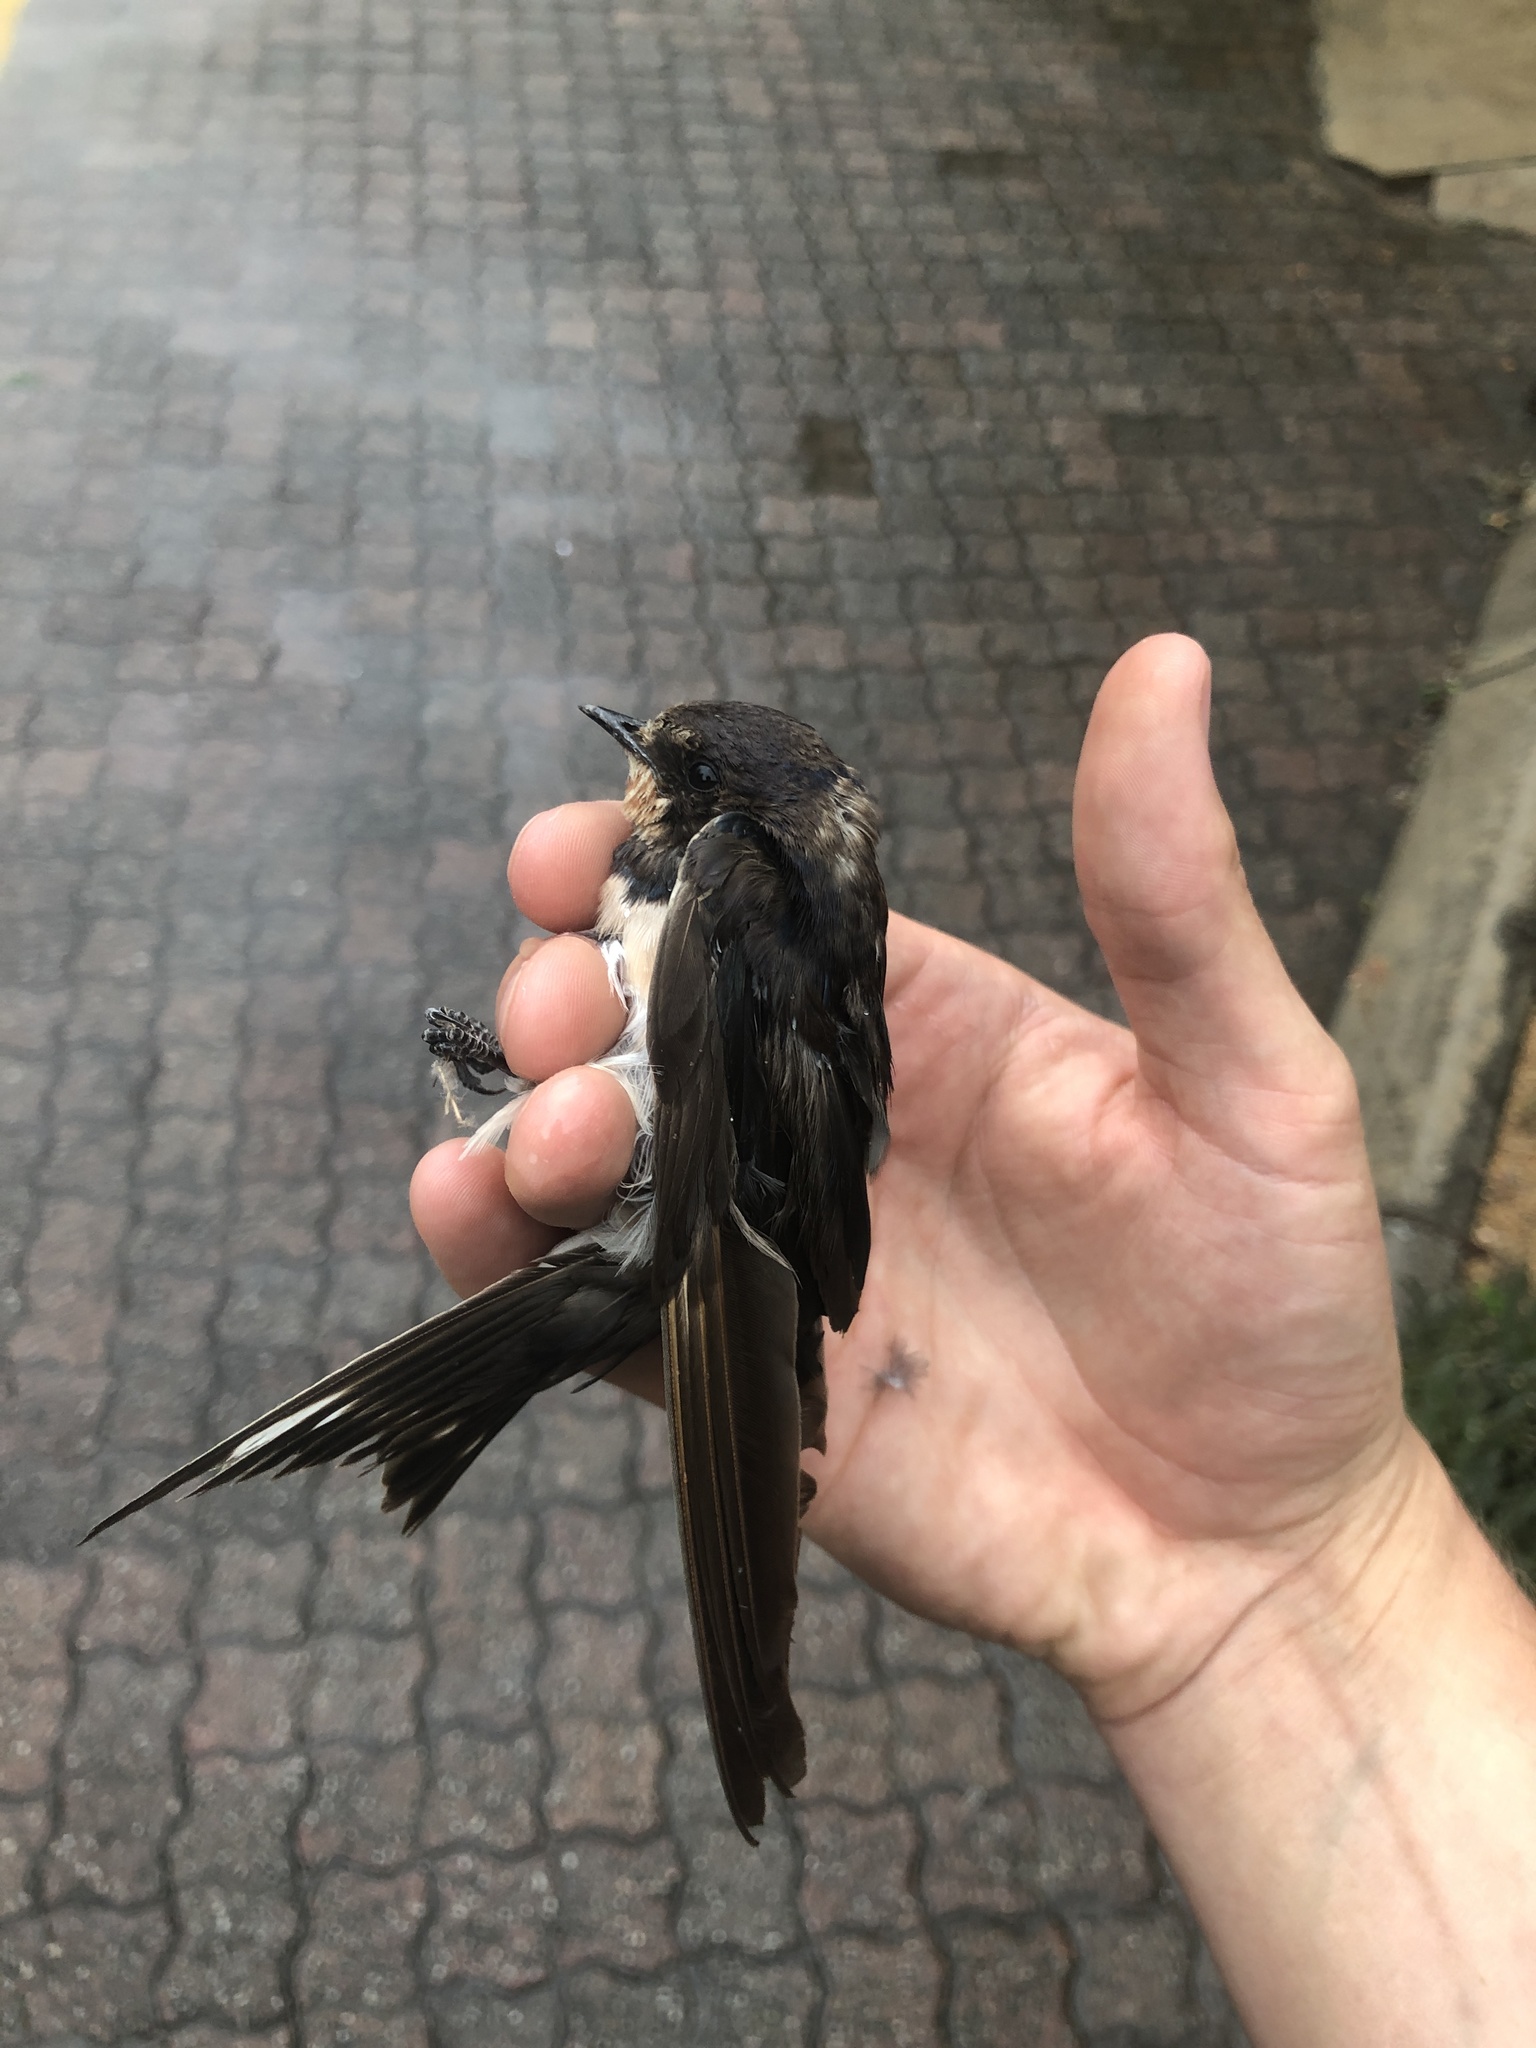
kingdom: Animalia
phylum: Chordata
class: Aves
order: Passeriformes
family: Hirundinidae
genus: Hirundo
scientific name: Hirundo rustica
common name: Barn swallow
